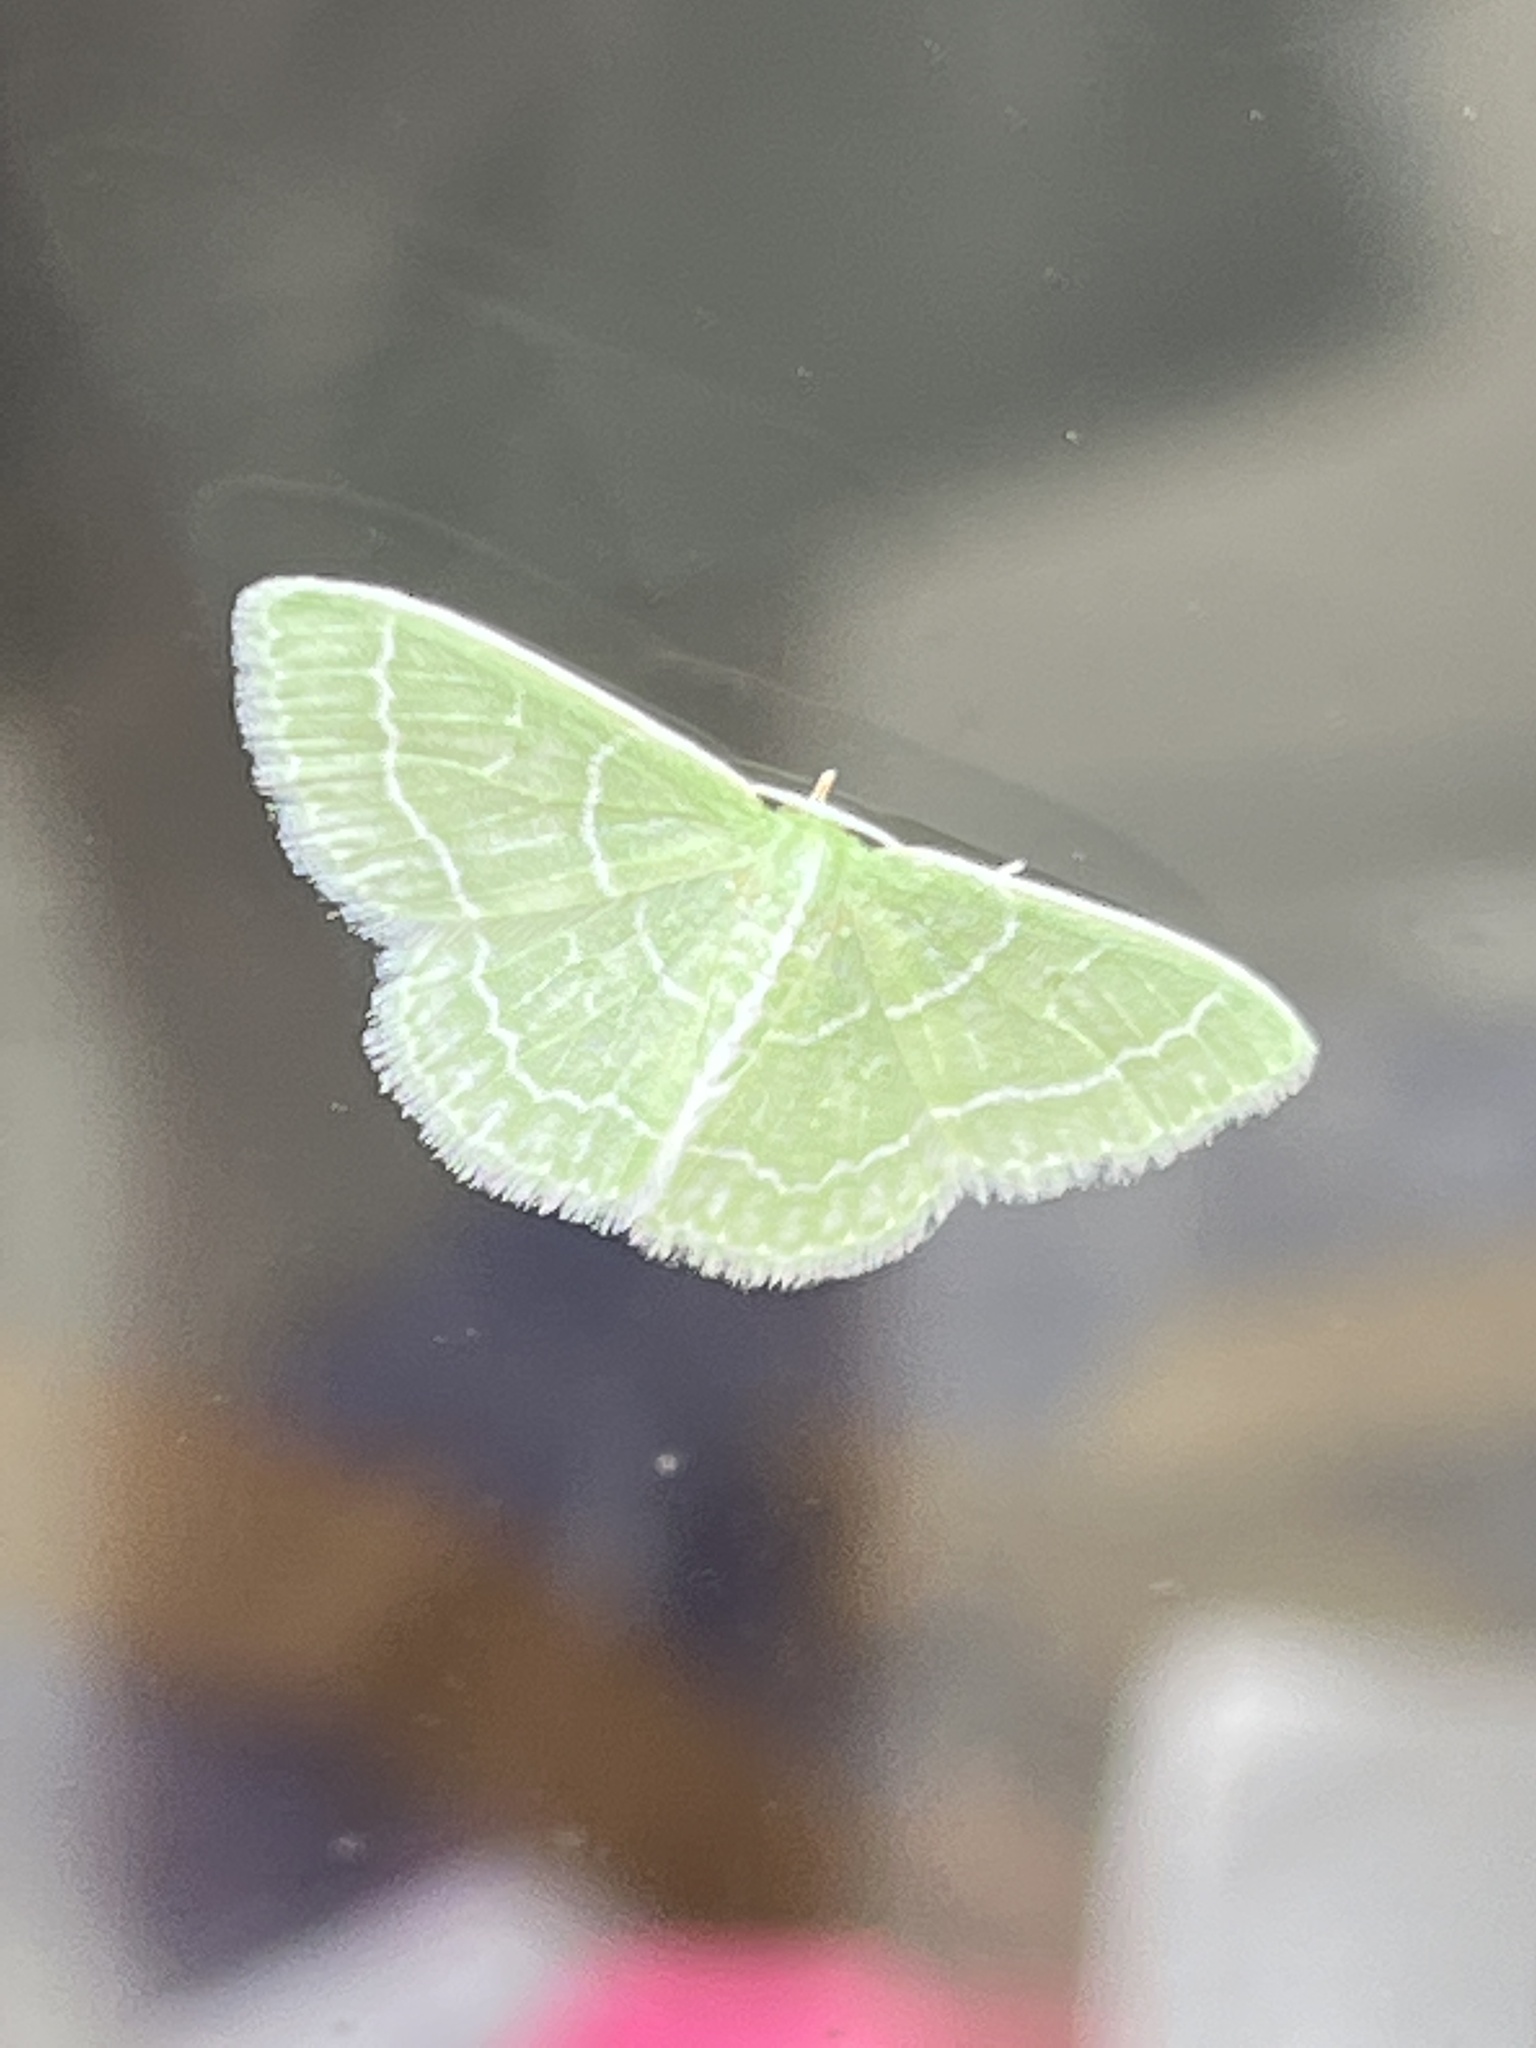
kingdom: Animalia
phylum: Arthropoda
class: Insecta
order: Lepidoptera
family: Geometridae
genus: Synchlora
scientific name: Synchlora aerata
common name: Wavy-lined emerald
